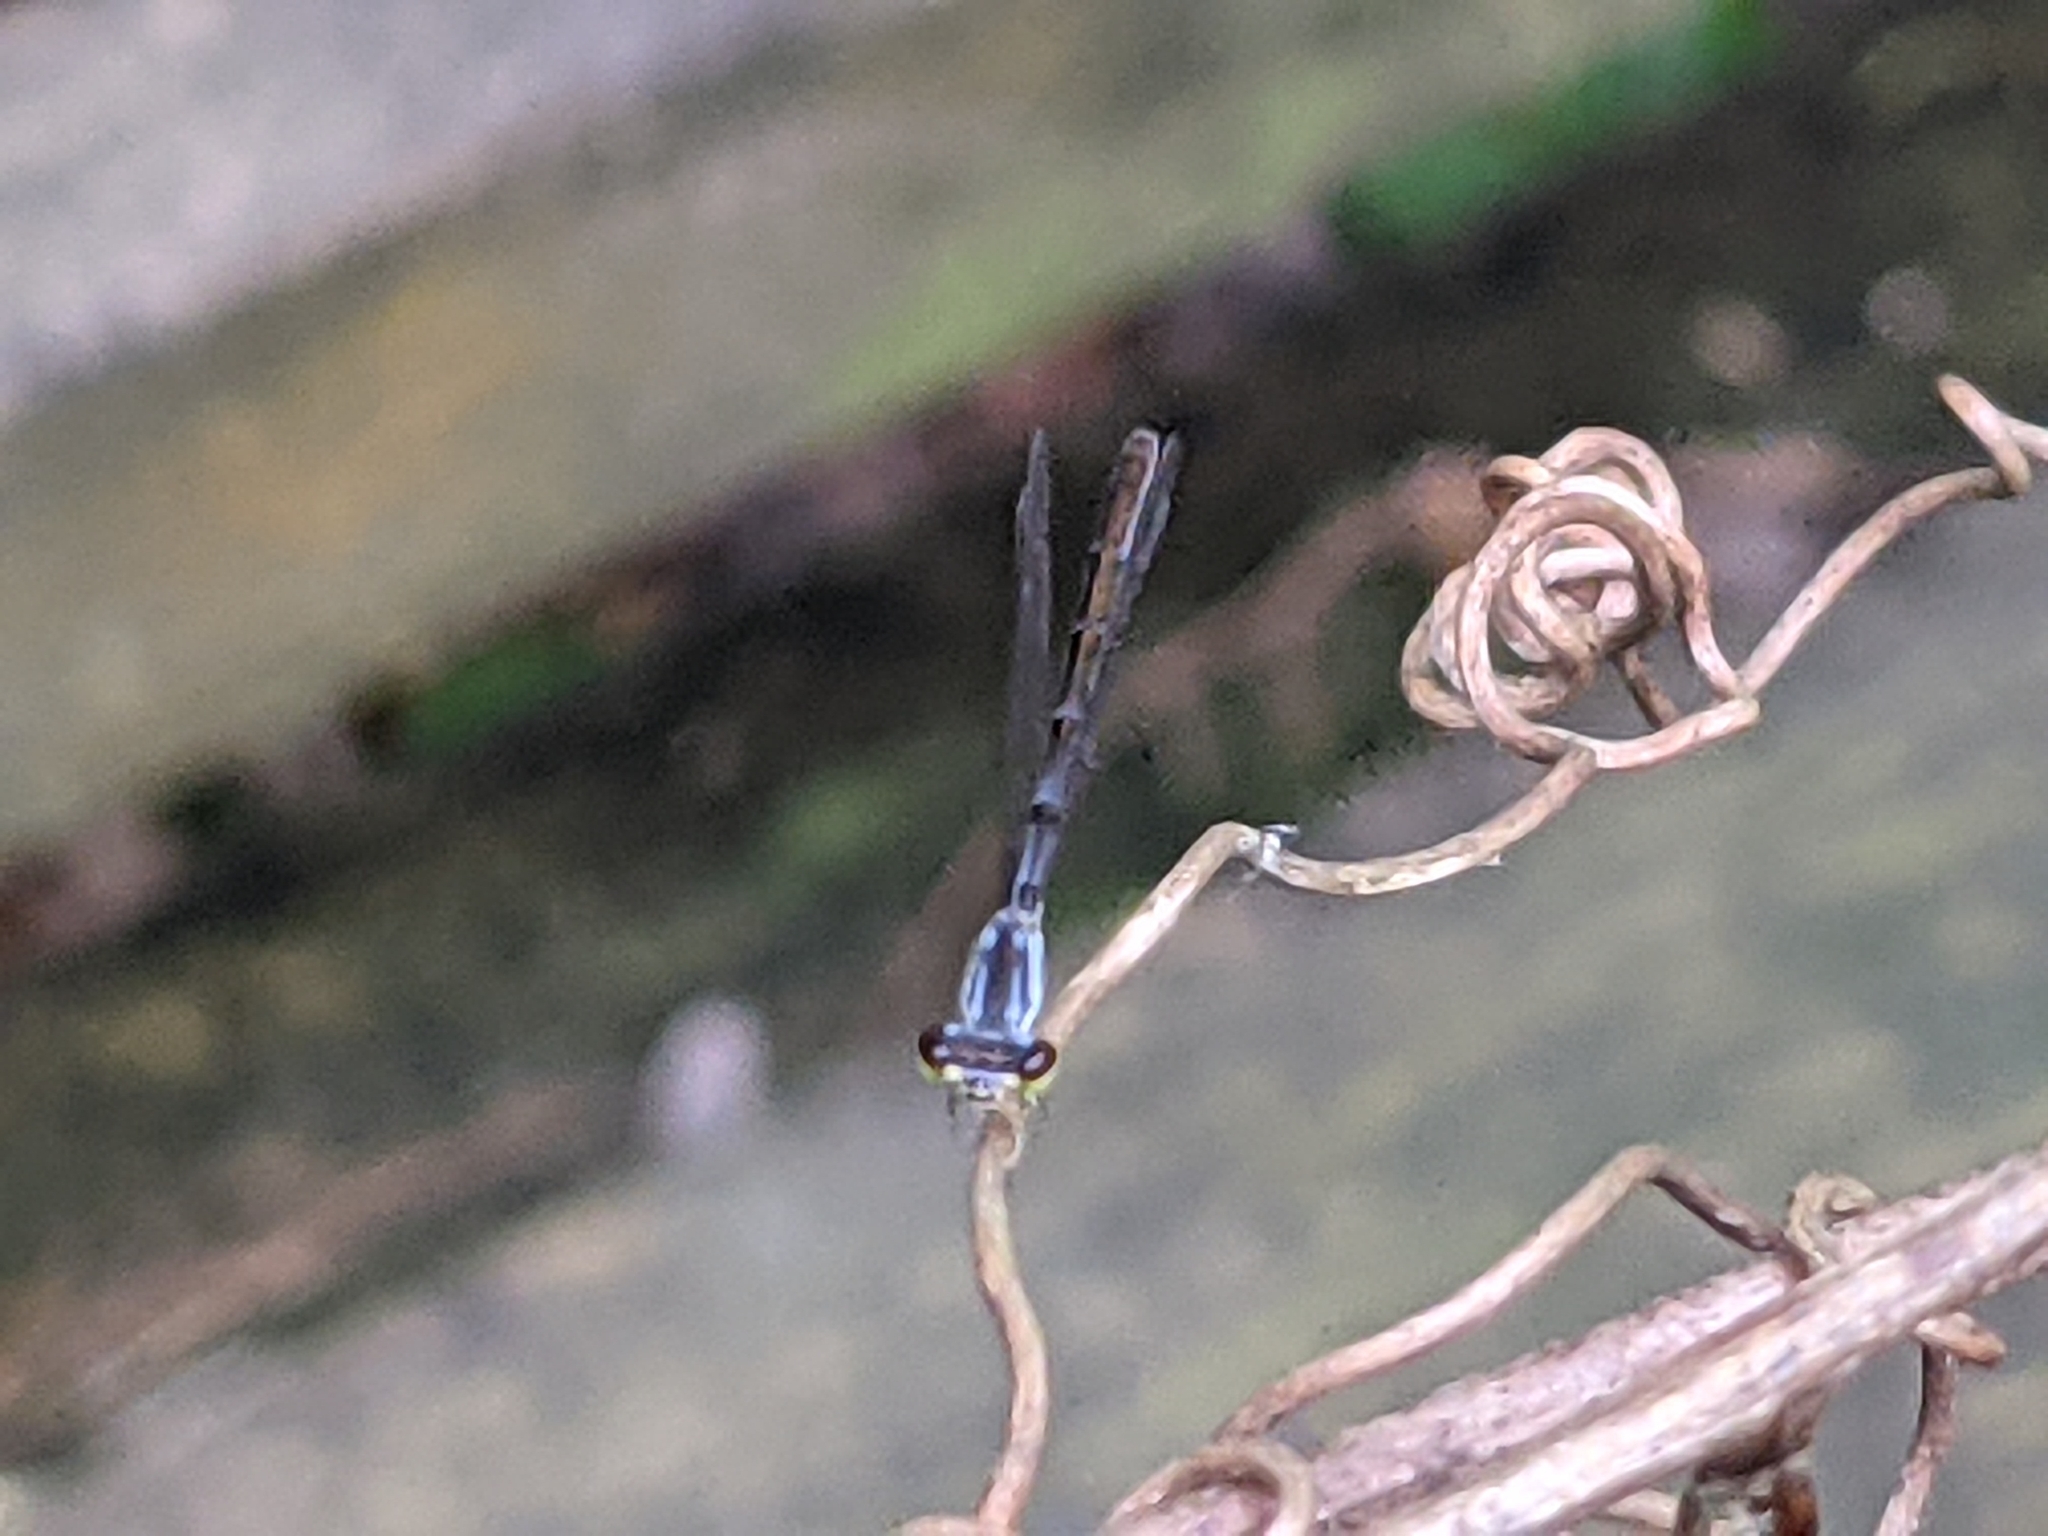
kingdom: Animalia
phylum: Arthropoda
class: Insecta
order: Odonata
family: Coenagrionidae
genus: Ischnura
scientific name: Ischnura posita
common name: Fragile forktail
